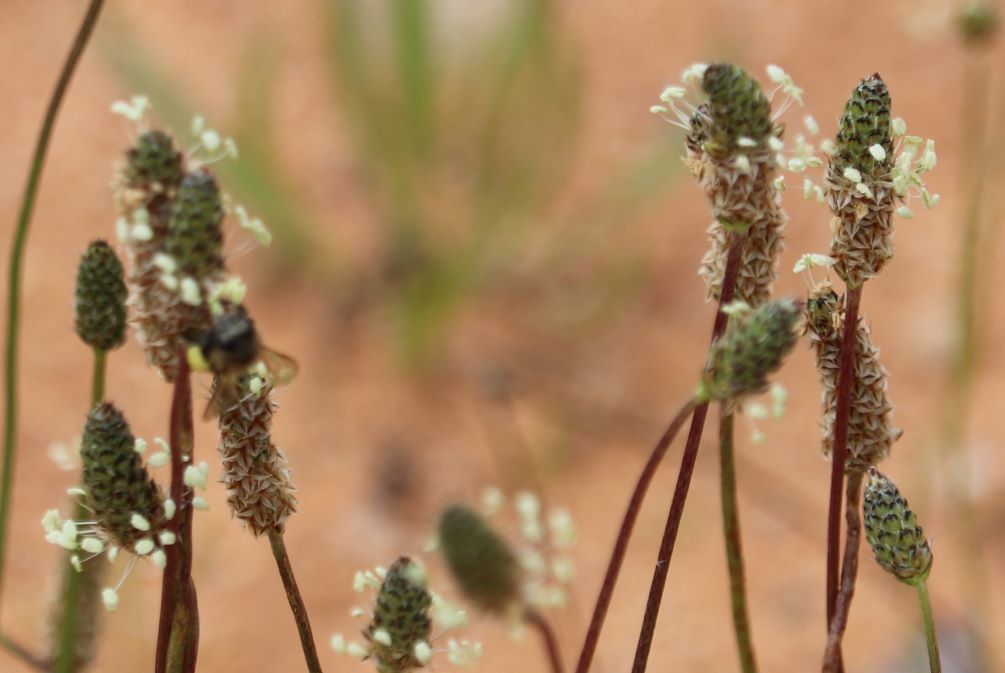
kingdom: Plantae
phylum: Tracheophyta
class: Magnoliopsida
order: Lamiales
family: Plantaginaceae
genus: Plantago
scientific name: Plantago lanceolata
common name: Ribwort plantain
